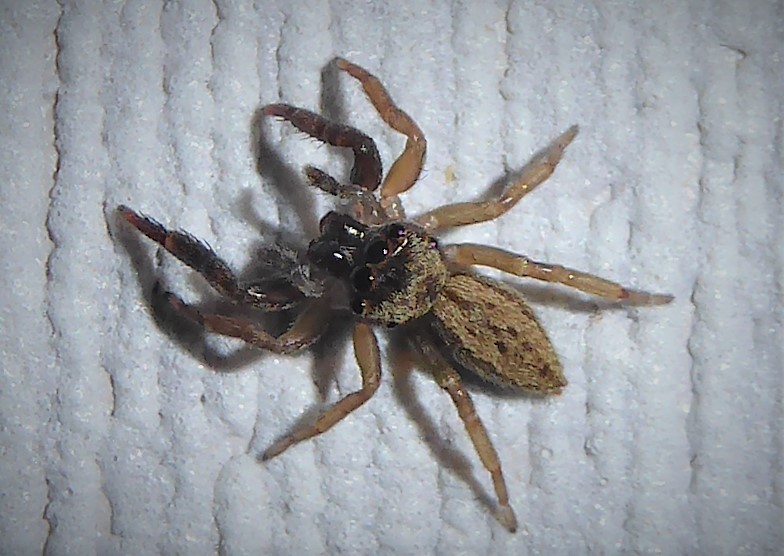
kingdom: Animalia
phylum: Arthropoda
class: Arachnida
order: Araneae
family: Salticidae
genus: Trite
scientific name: Trite auricoma
